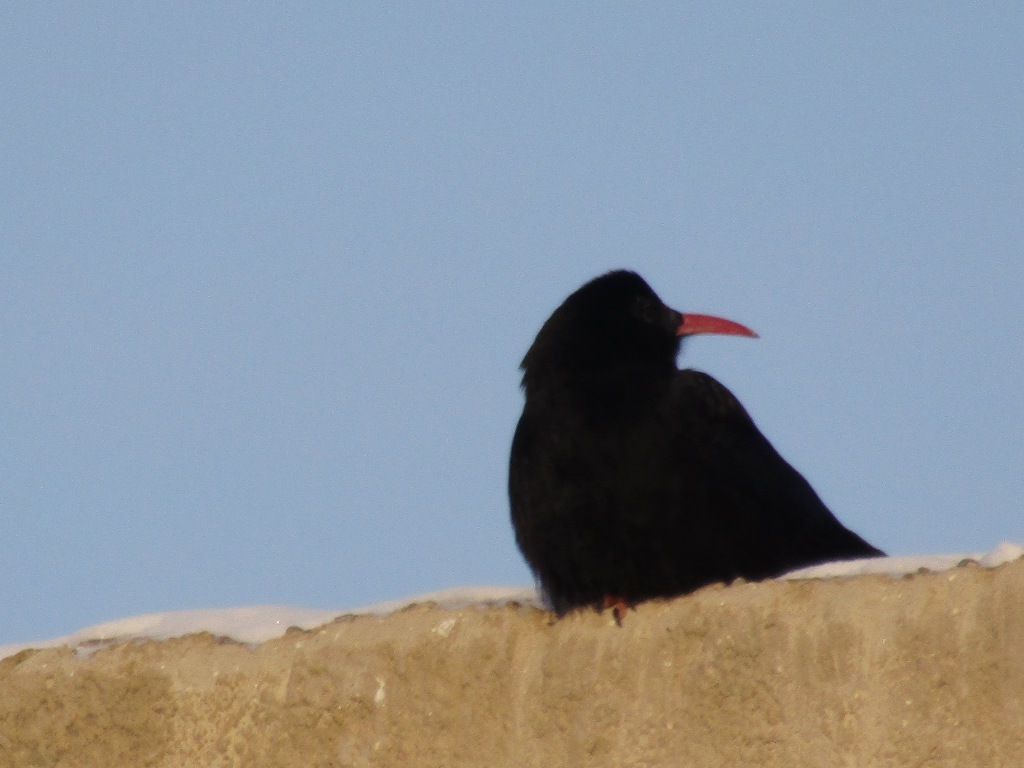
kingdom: Animalia
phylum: Chordata
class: Aves
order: Passeriformes
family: Corvidae
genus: Pyrrhocorax
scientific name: Pyrrhocorax pyrrhocorax
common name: Red-billed chough
